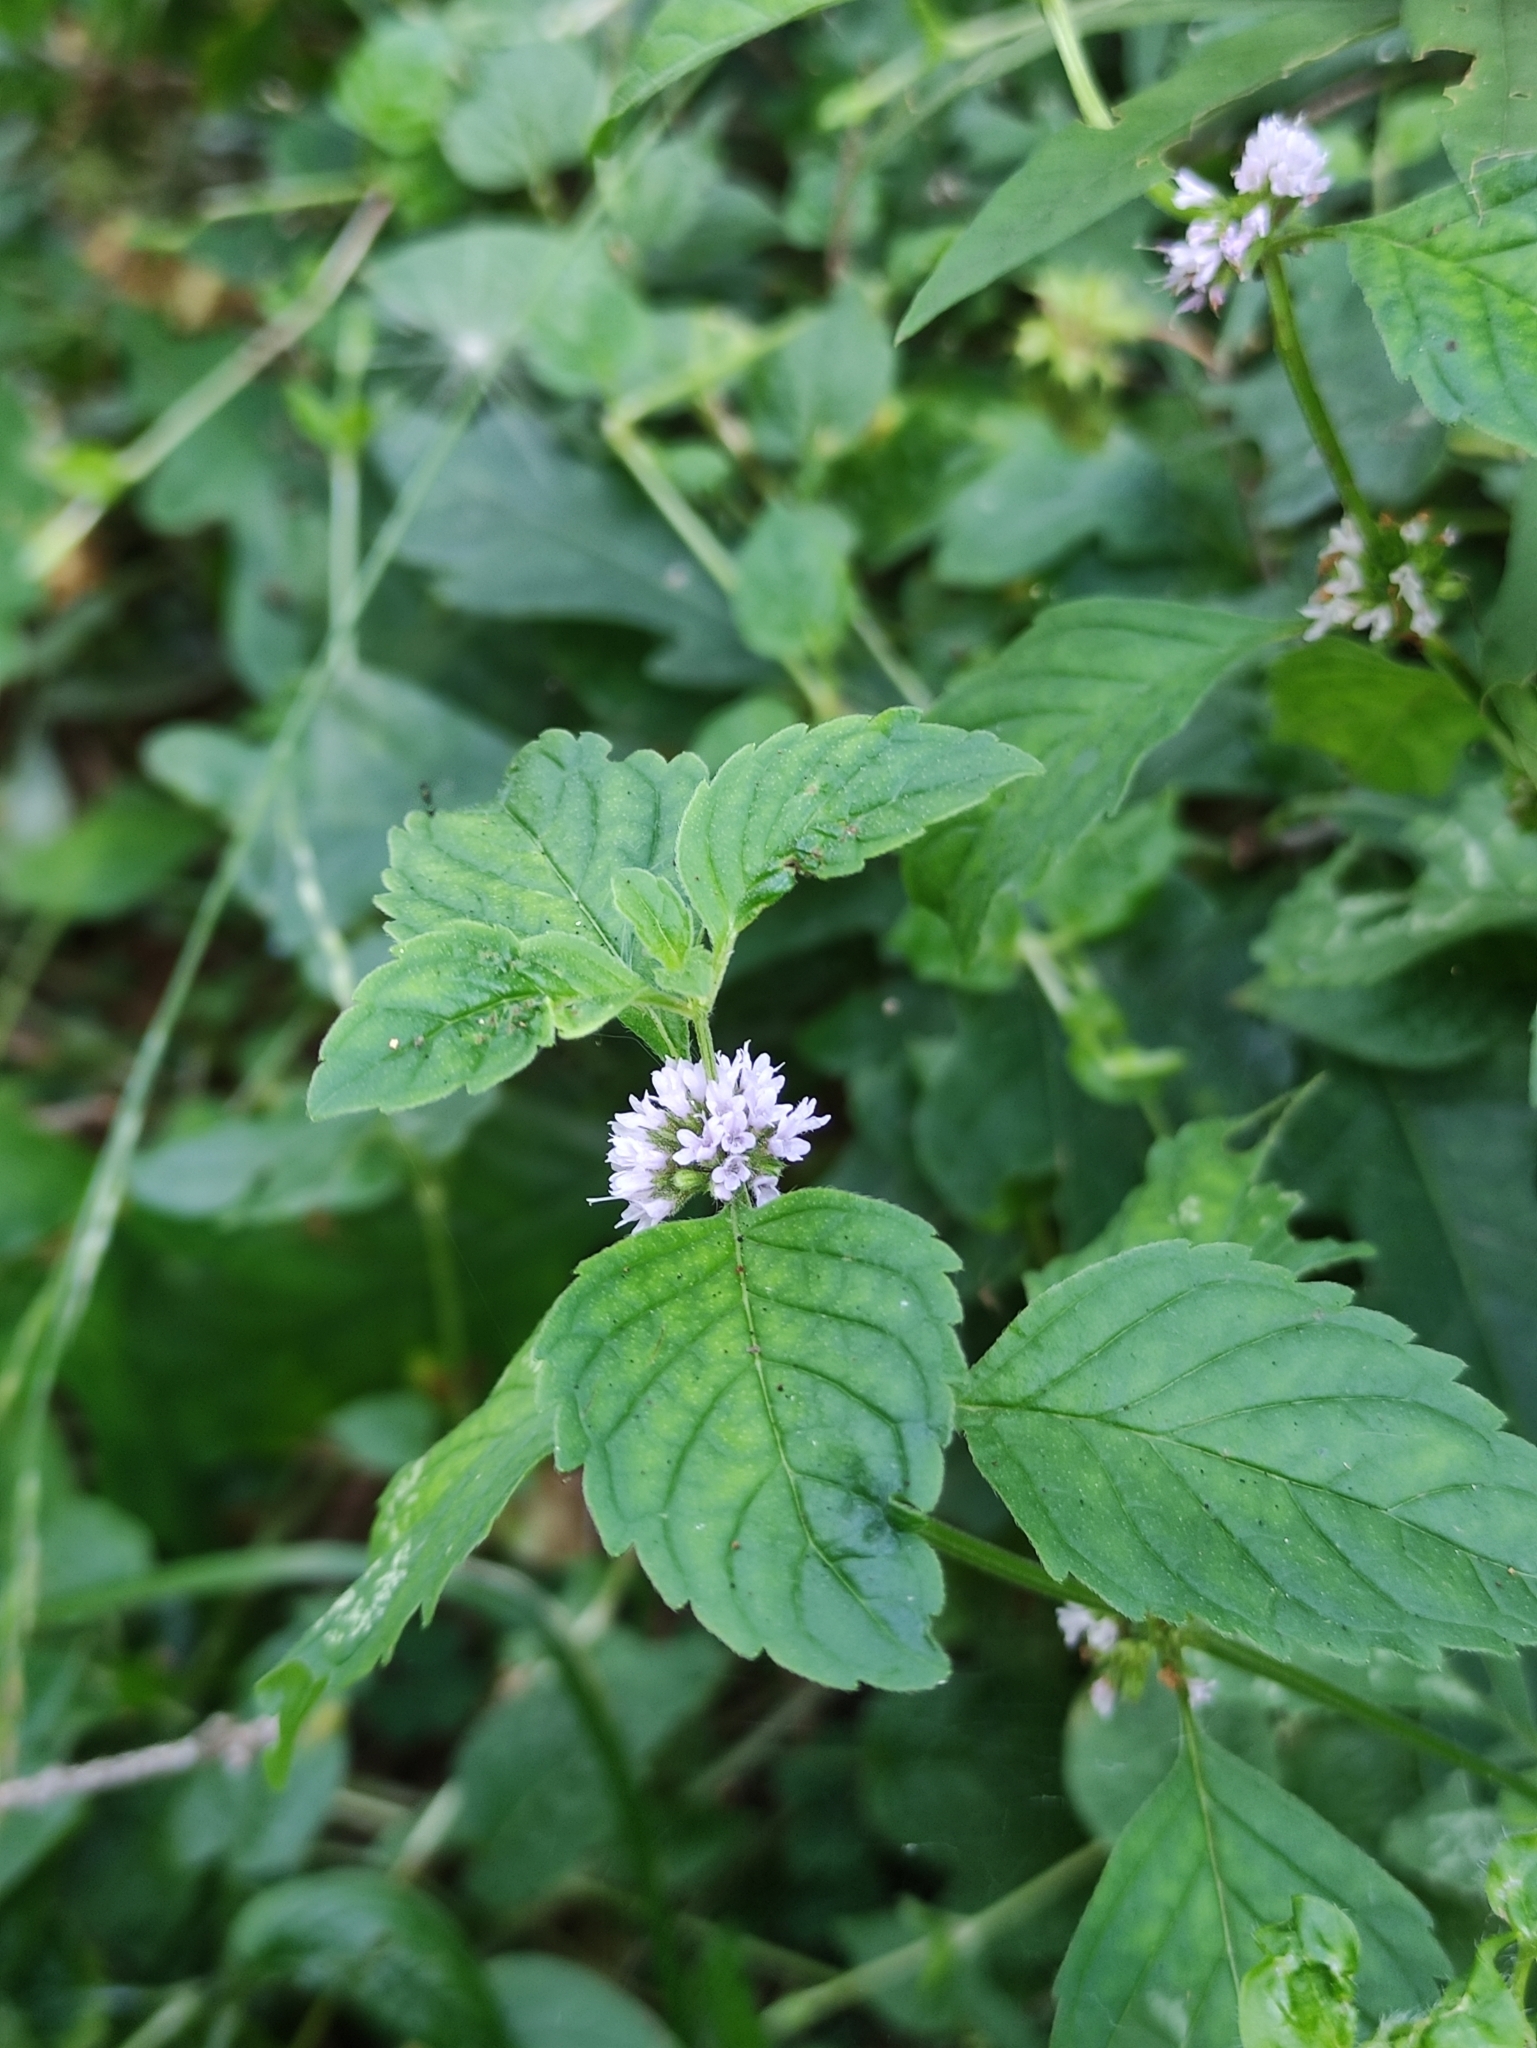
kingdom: Plantae
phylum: Tracheophyta
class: Magnoliopsida
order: Lamiales
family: Lamiaceae
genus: Mentha
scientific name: Mentha arvensis
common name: Corn mint
